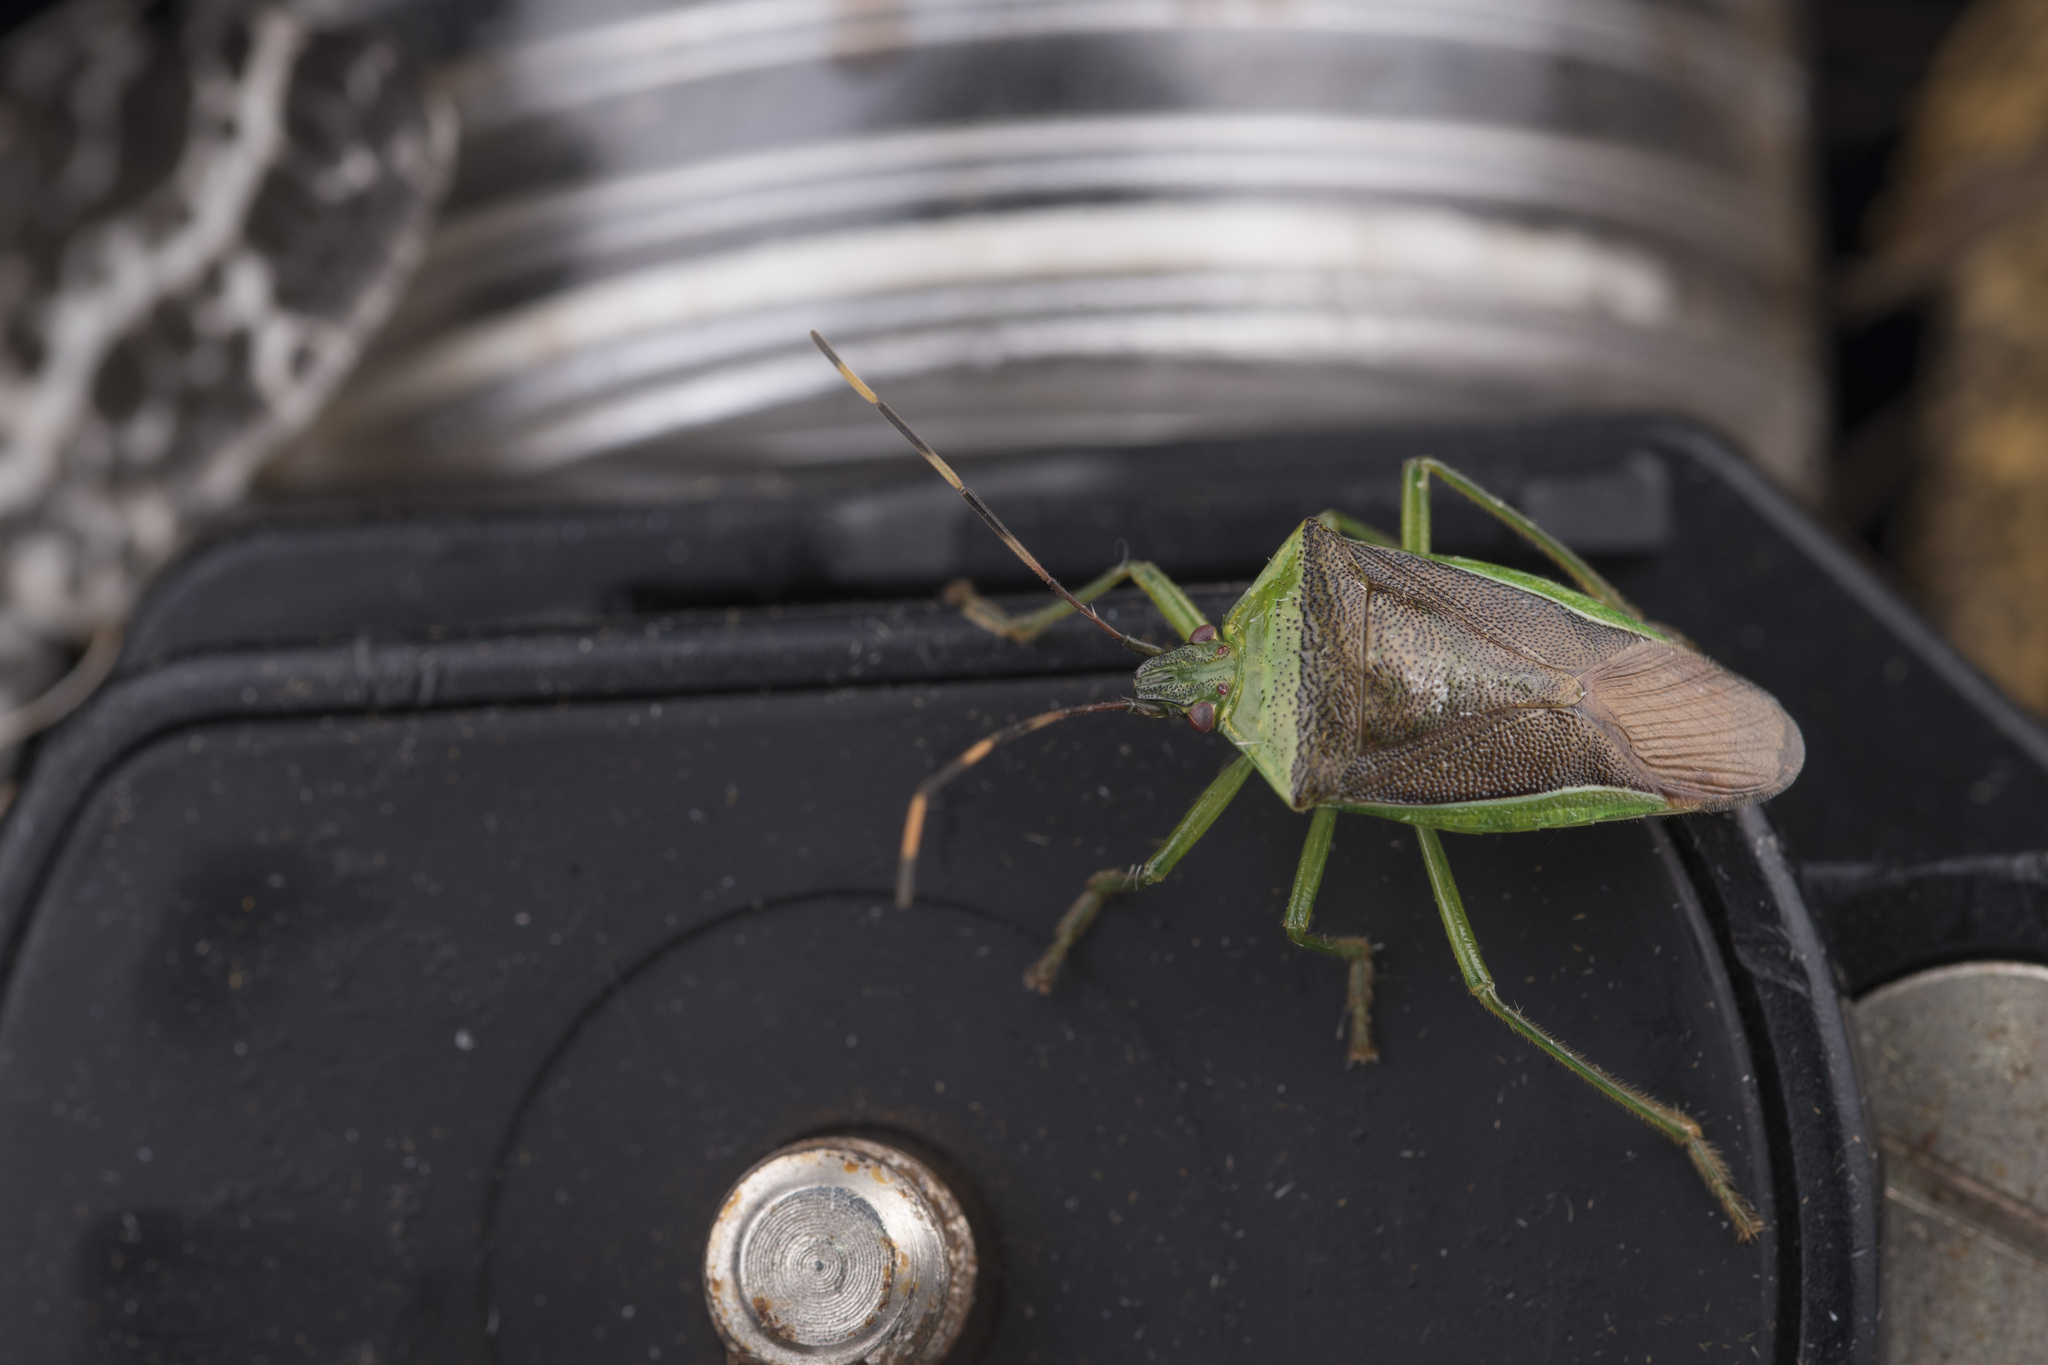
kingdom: Animalia
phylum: Arthropoda
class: Insecta
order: Hemiptera
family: Pentatomidae
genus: Neojurtina
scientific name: Neojurtina typica
